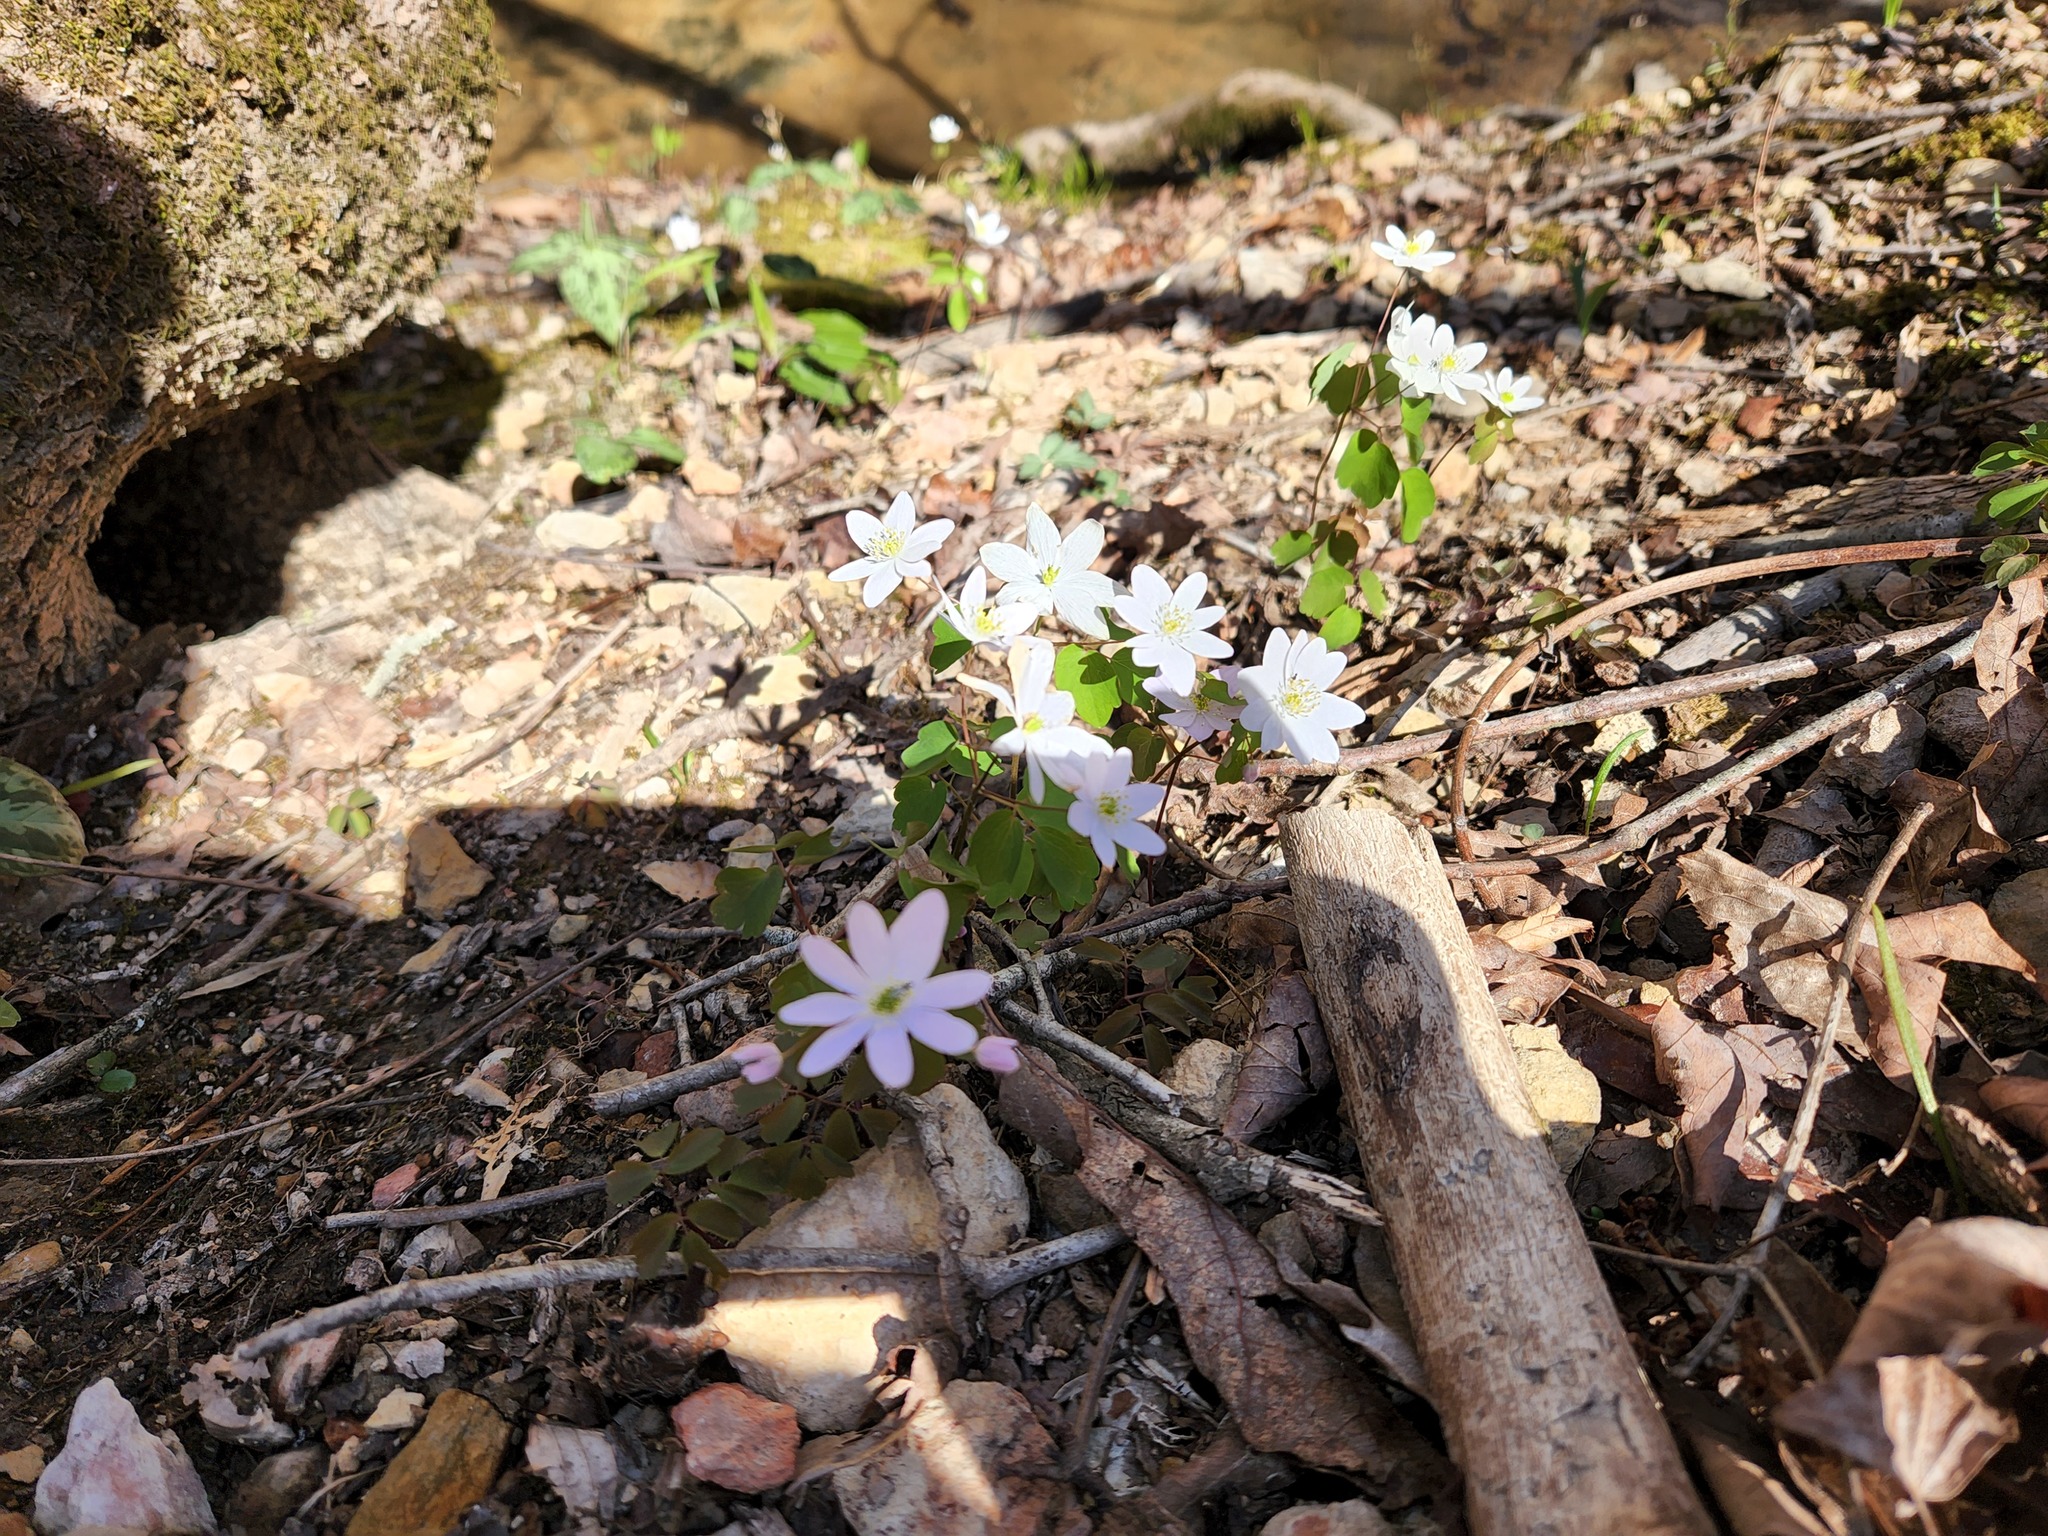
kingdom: Plantae
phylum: Tracheophyta
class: Magnoliopsida
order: Ranunculales
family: Ranunculaceae
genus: Thalictrum
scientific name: Thalictrum thalictroides
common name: Rue-anemone
